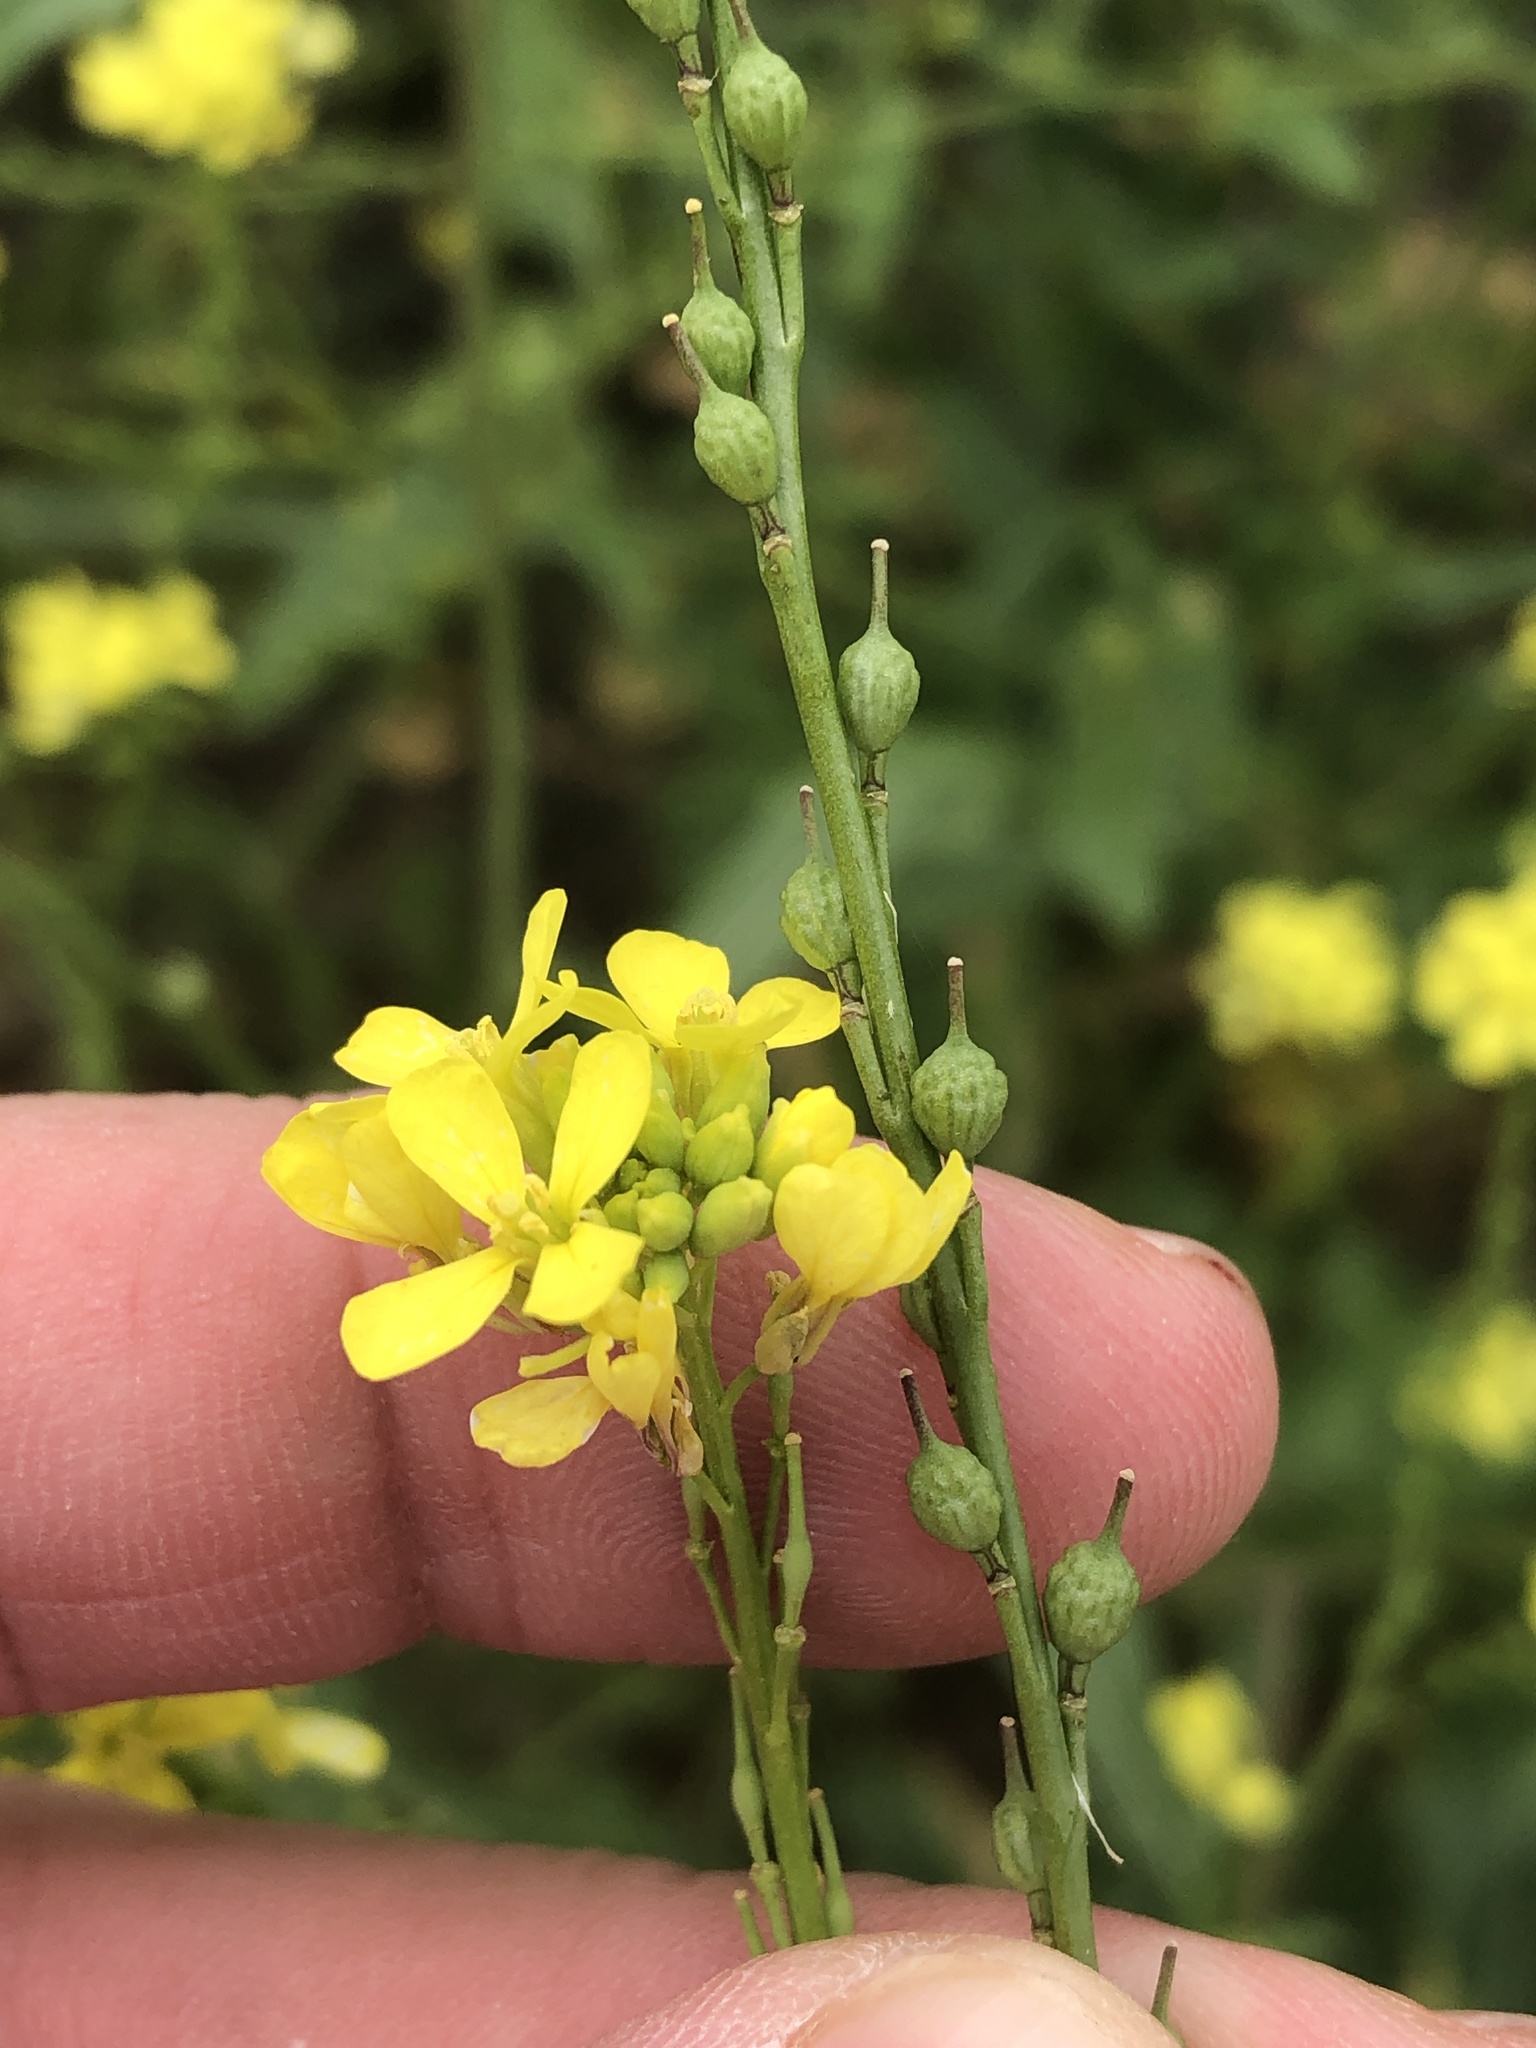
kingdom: Plantae
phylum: Tracheophyta
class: Magnoliopsida
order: Brassicales
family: Brassicaceae
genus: Rapistrum
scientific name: Rapistrum rugosum
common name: Annual bastardcabbage
